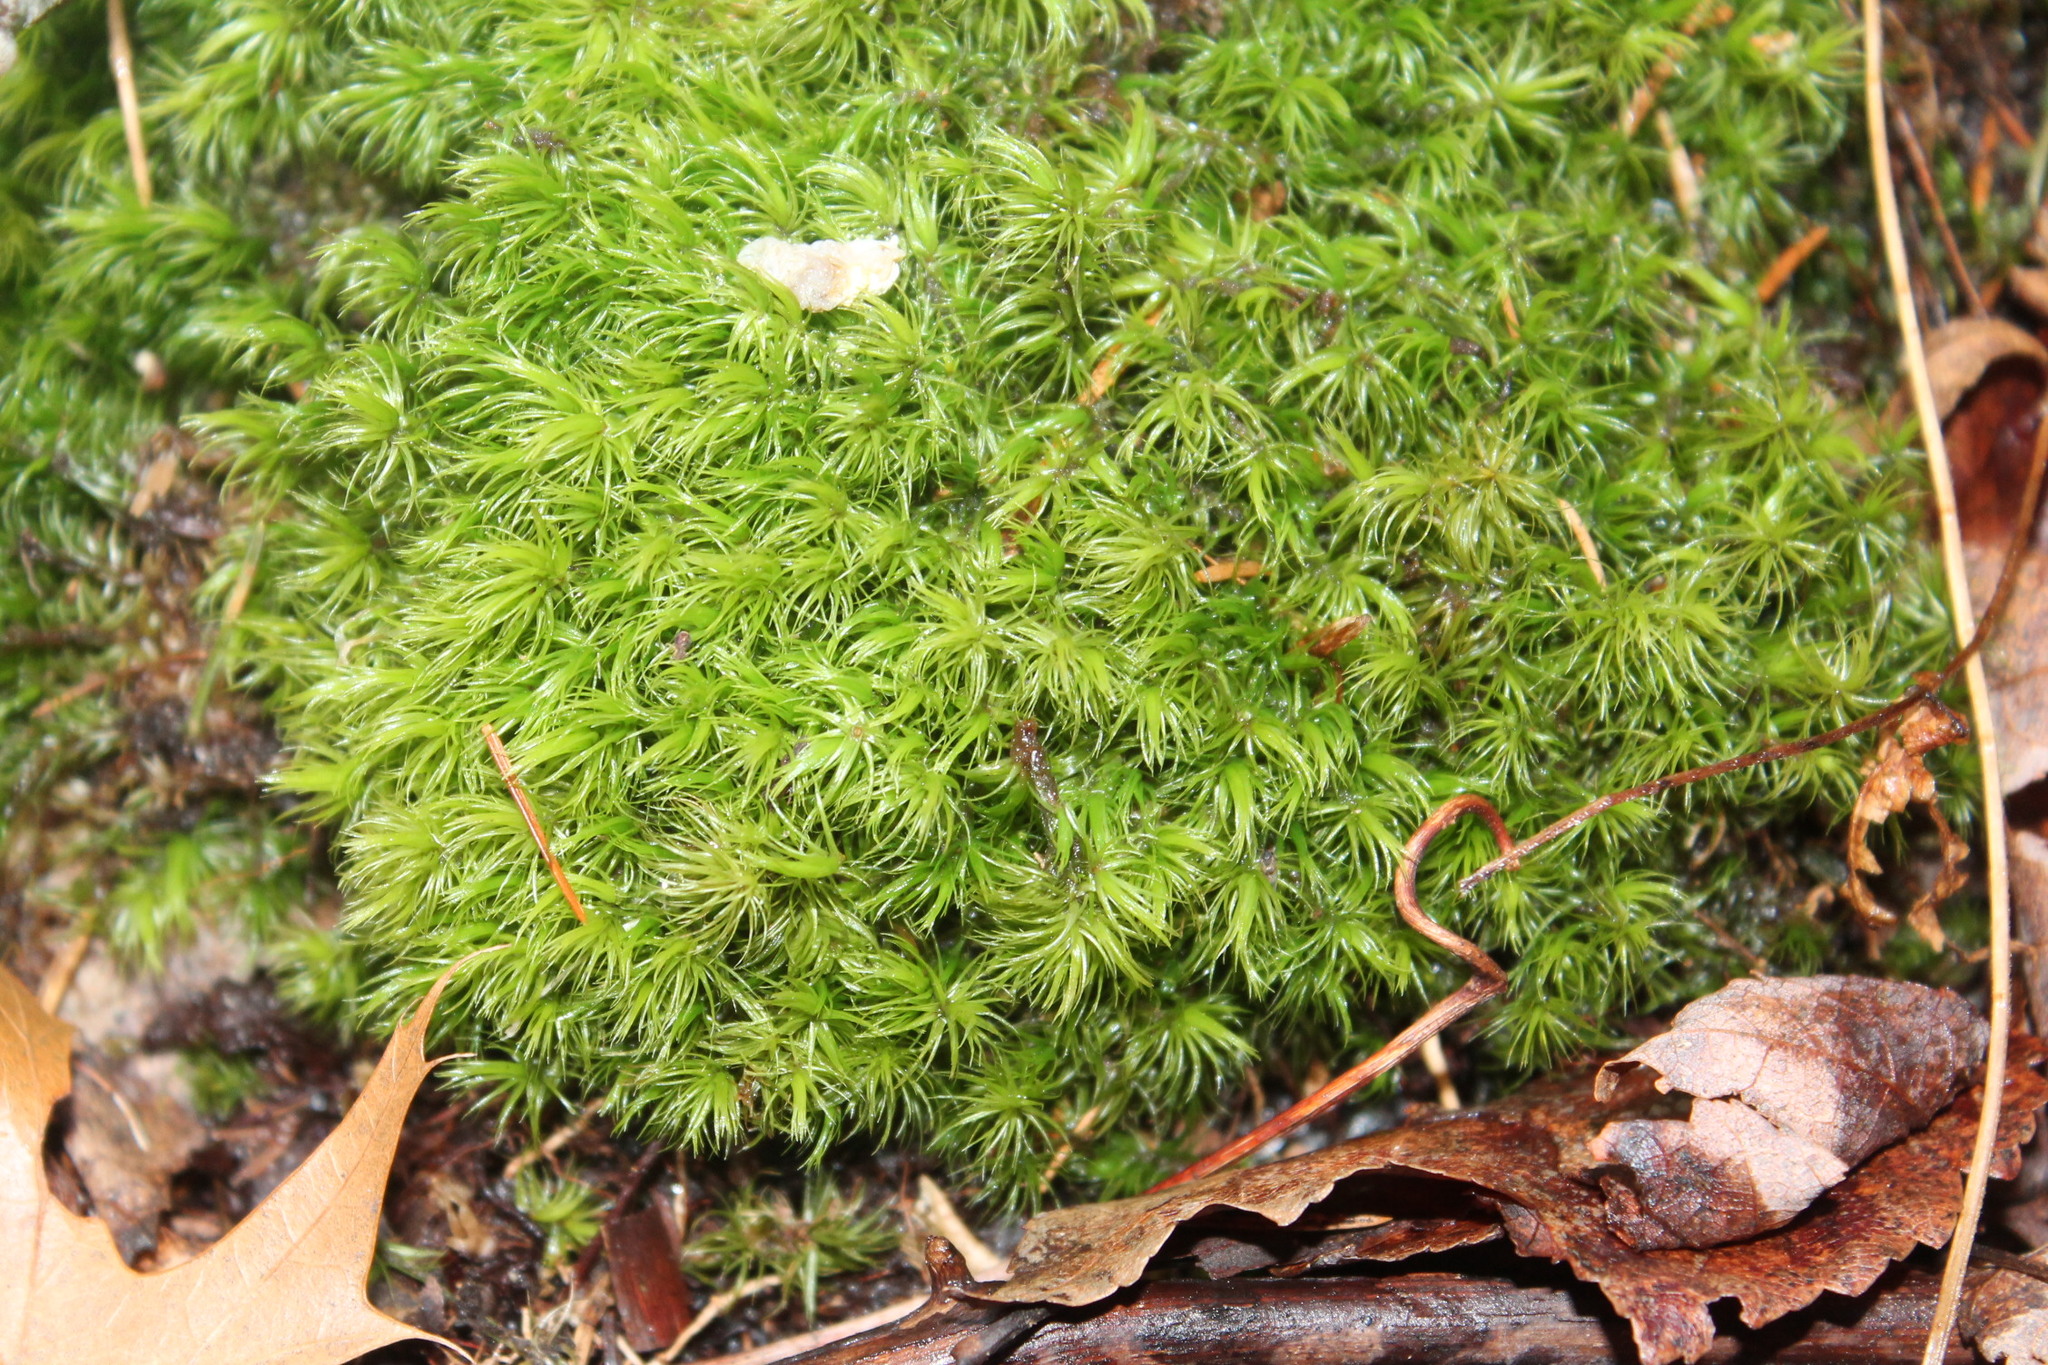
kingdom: Plantae
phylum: Bryophyta
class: Bryopsida
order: Dicranales
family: Dicranaceae
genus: Dicranum
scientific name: Dicranum scoparium
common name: Broom fork-moss
